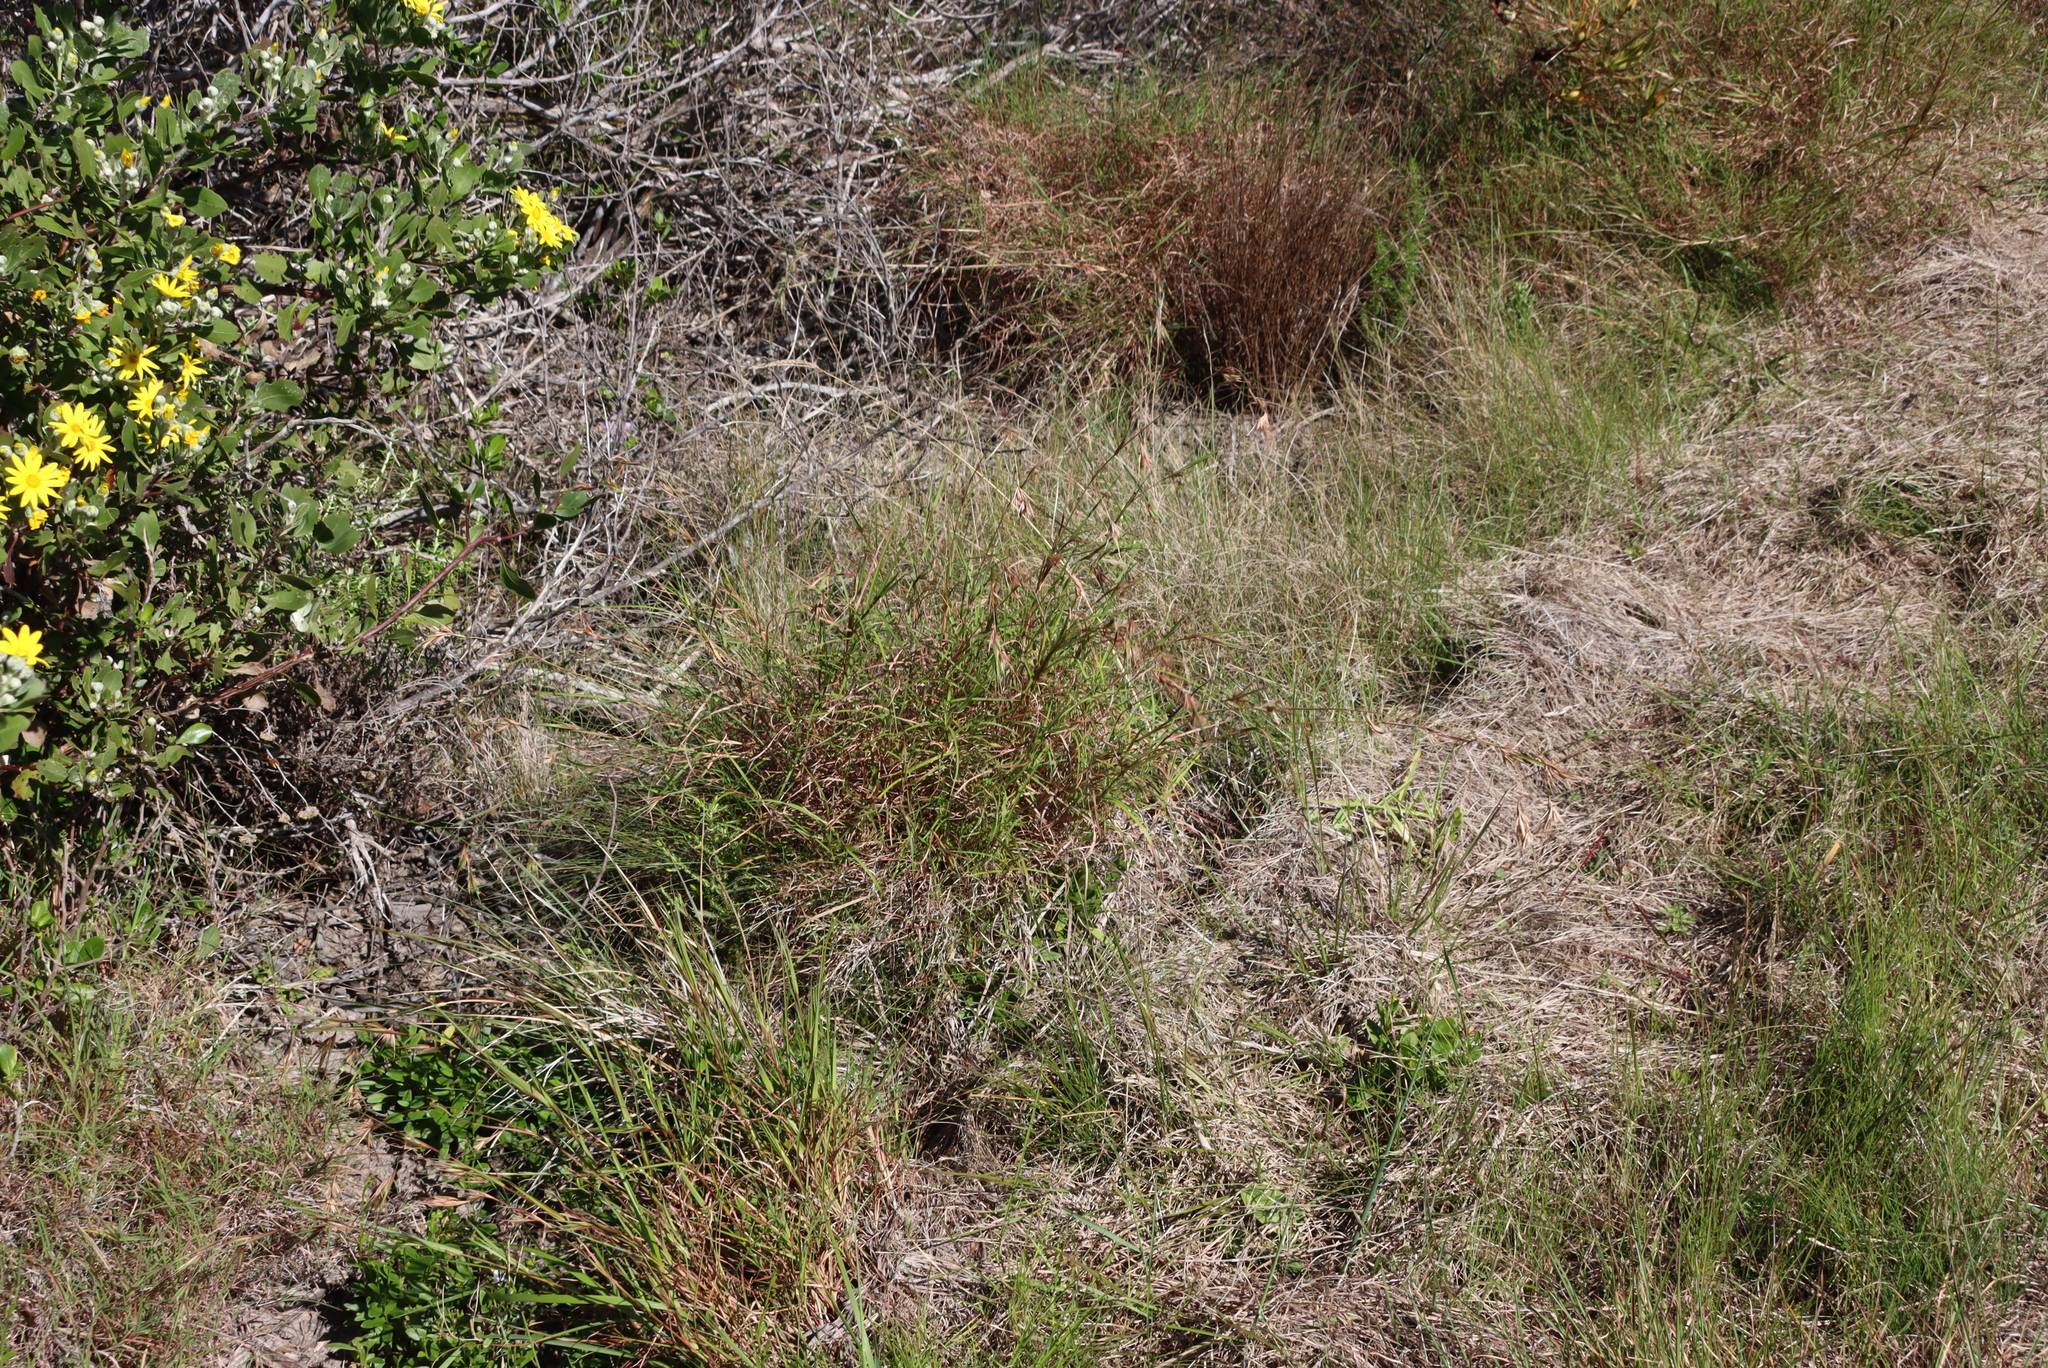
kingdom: Plantae
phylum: Tracheophyta
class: Liliopsida
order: Poales
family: Poaceae
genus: Themeda
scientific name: Themeda triandra
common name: Kangaroo grass
